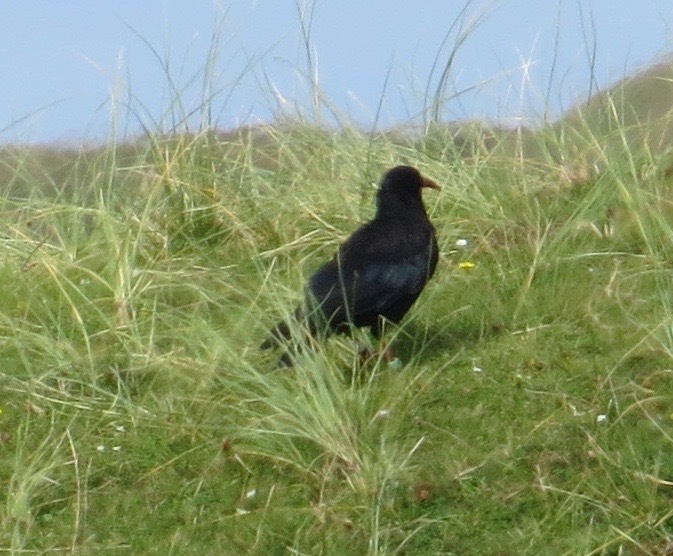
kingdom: Animalia
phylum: Chordata
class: Aves
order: Passeriformes
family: Corvidae
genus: Pyrrhocorax
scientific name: Pyrrhocorax pyrrhocorax
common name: Red-billed chough
